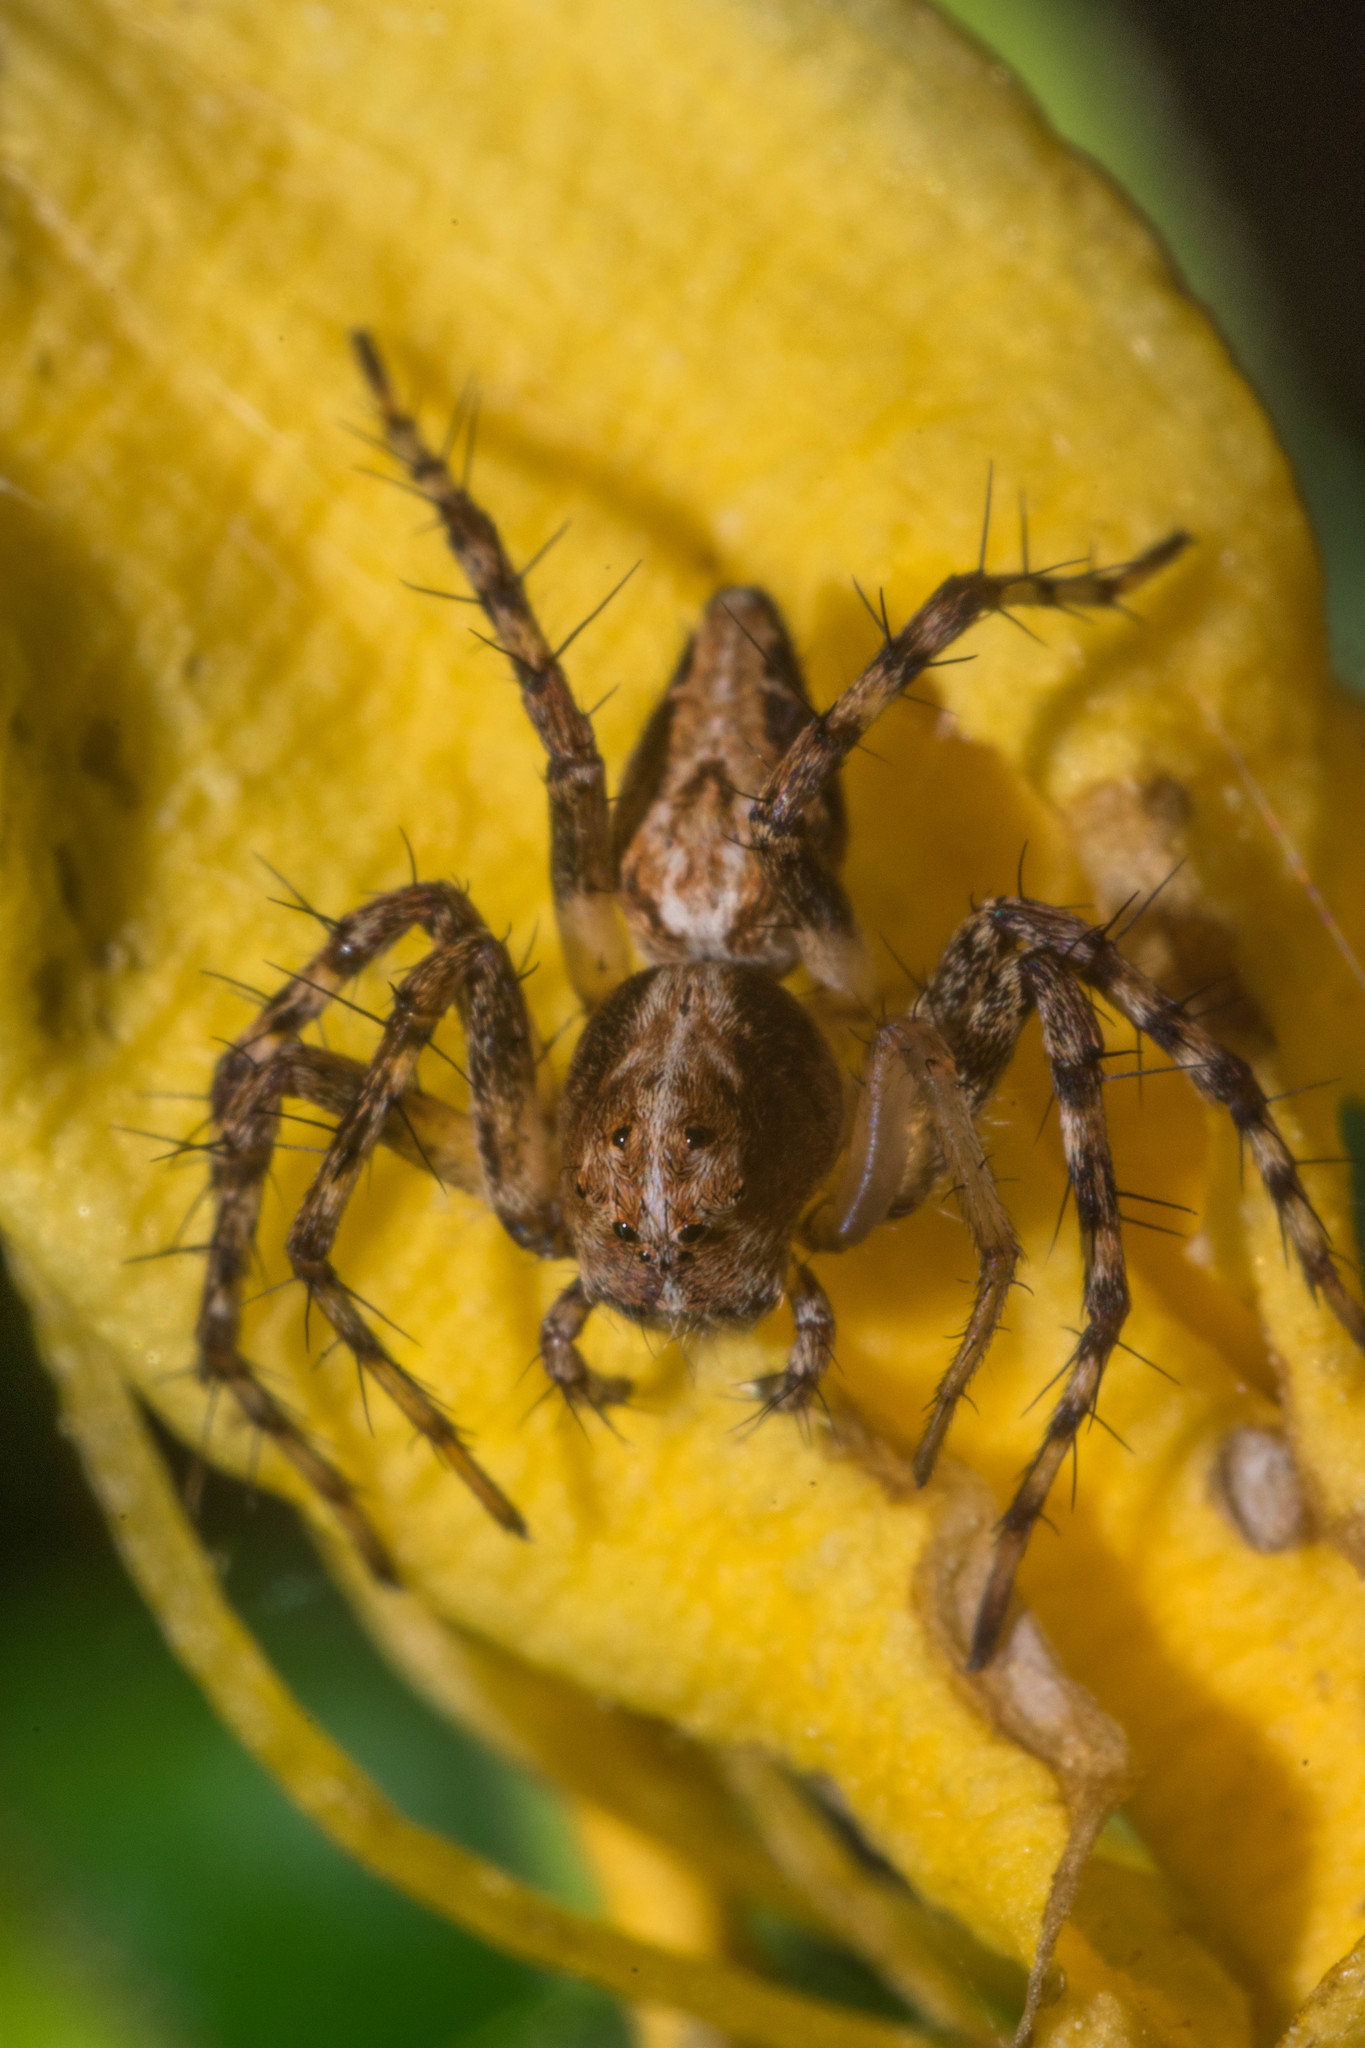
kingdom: Animalia
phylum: Arthropoda
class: Arachnida
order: Araneae
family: Oxyopidae
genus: Oxyopes
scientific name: Oxyopes scalaris
